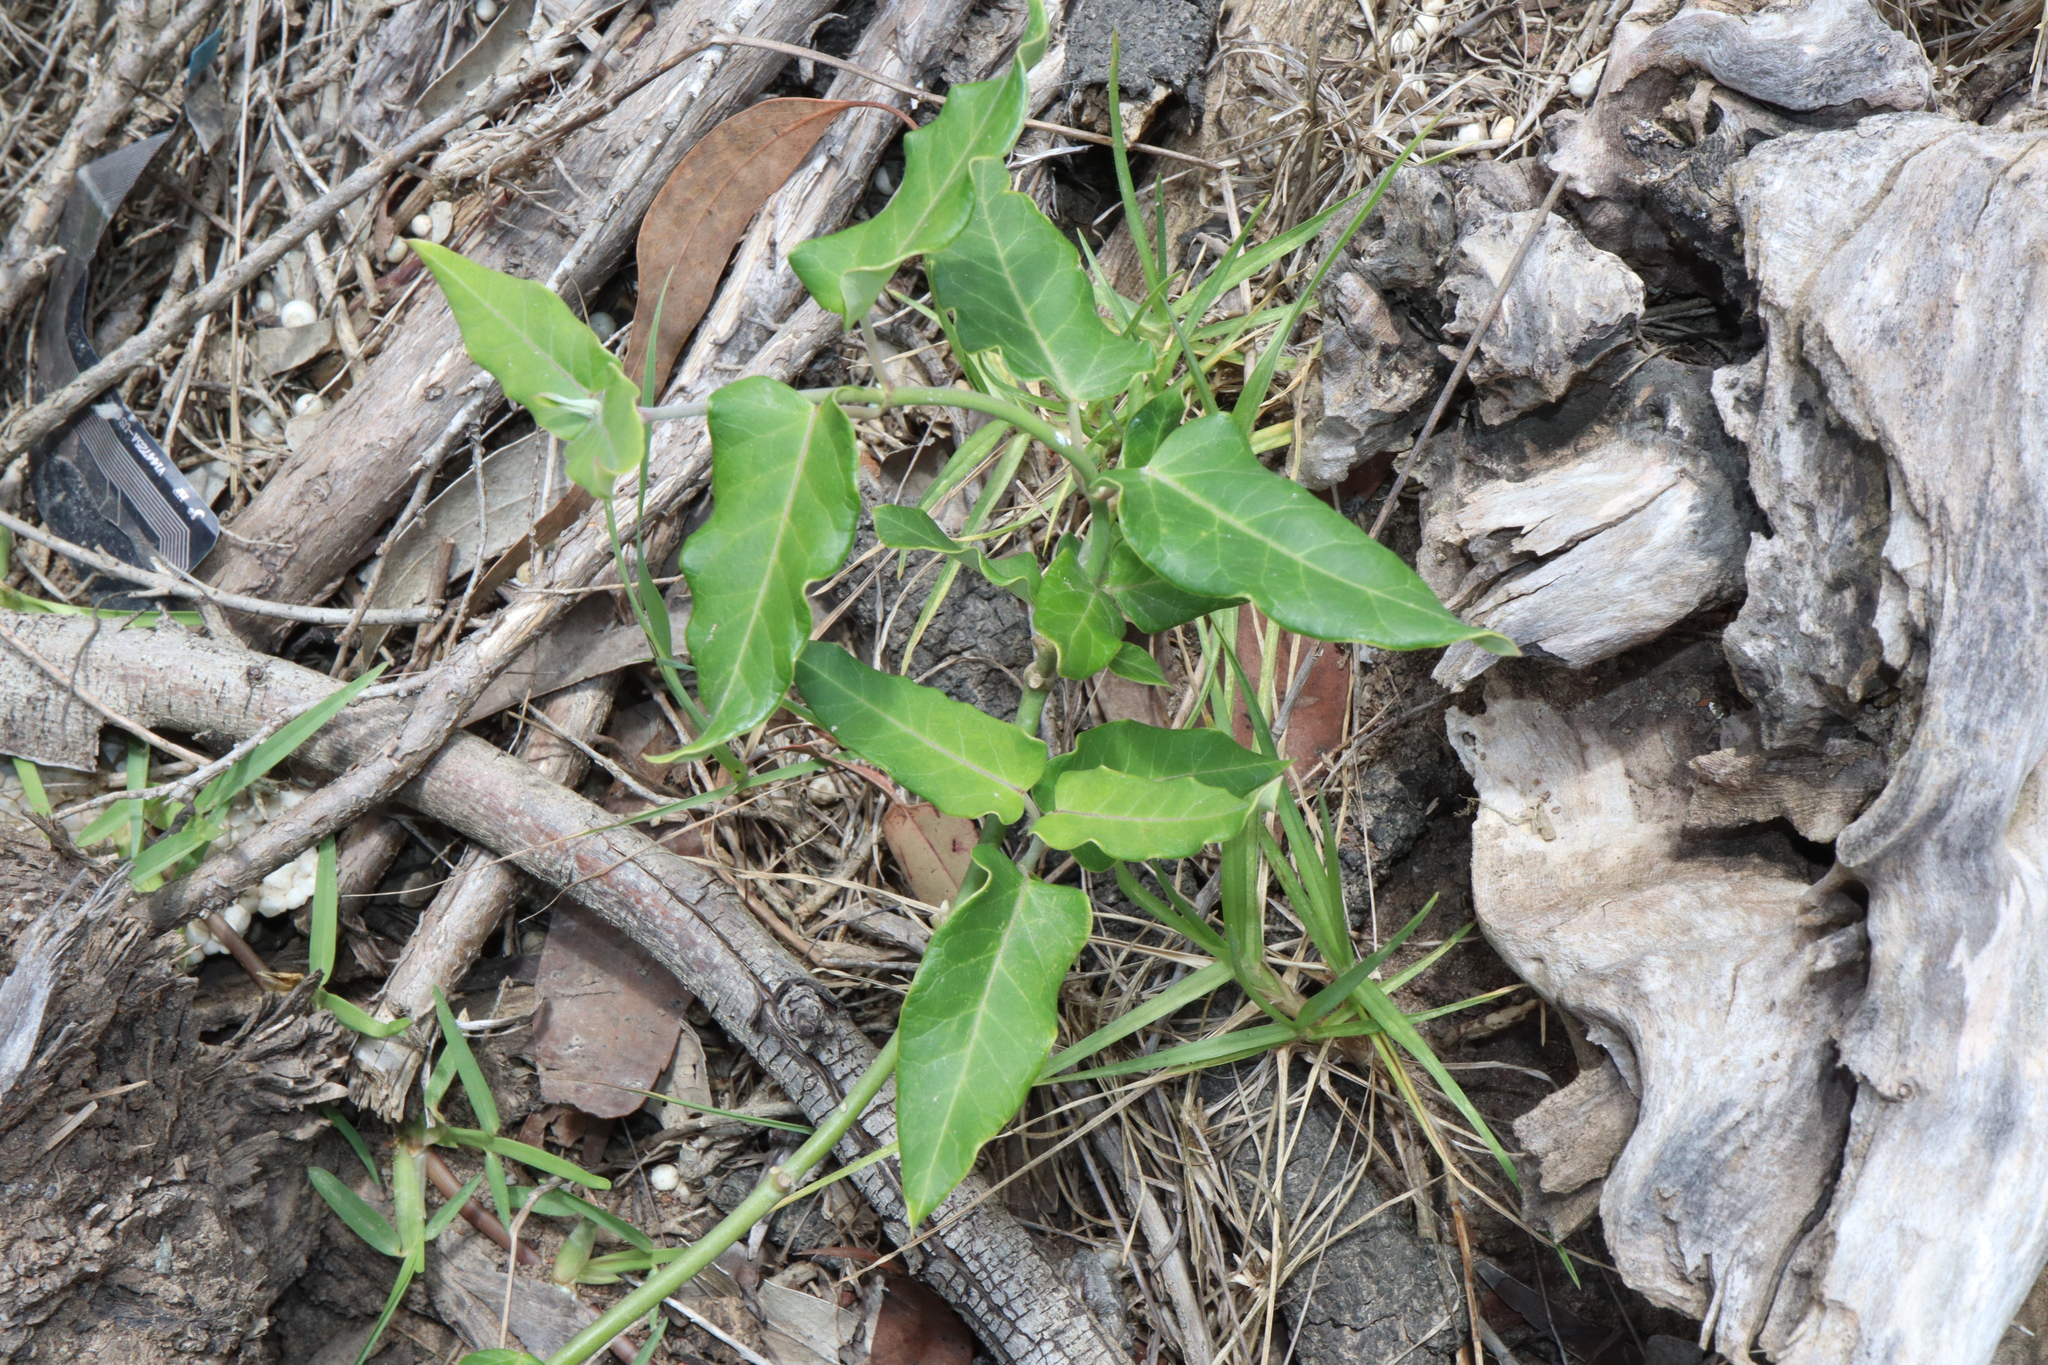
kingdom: Plantae
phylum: Tracheophyta
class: Magnoliopsida
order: Gentianales
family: Apocynaceae
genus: Araujia
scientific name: Araujia sericifera
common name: White bladderflower
